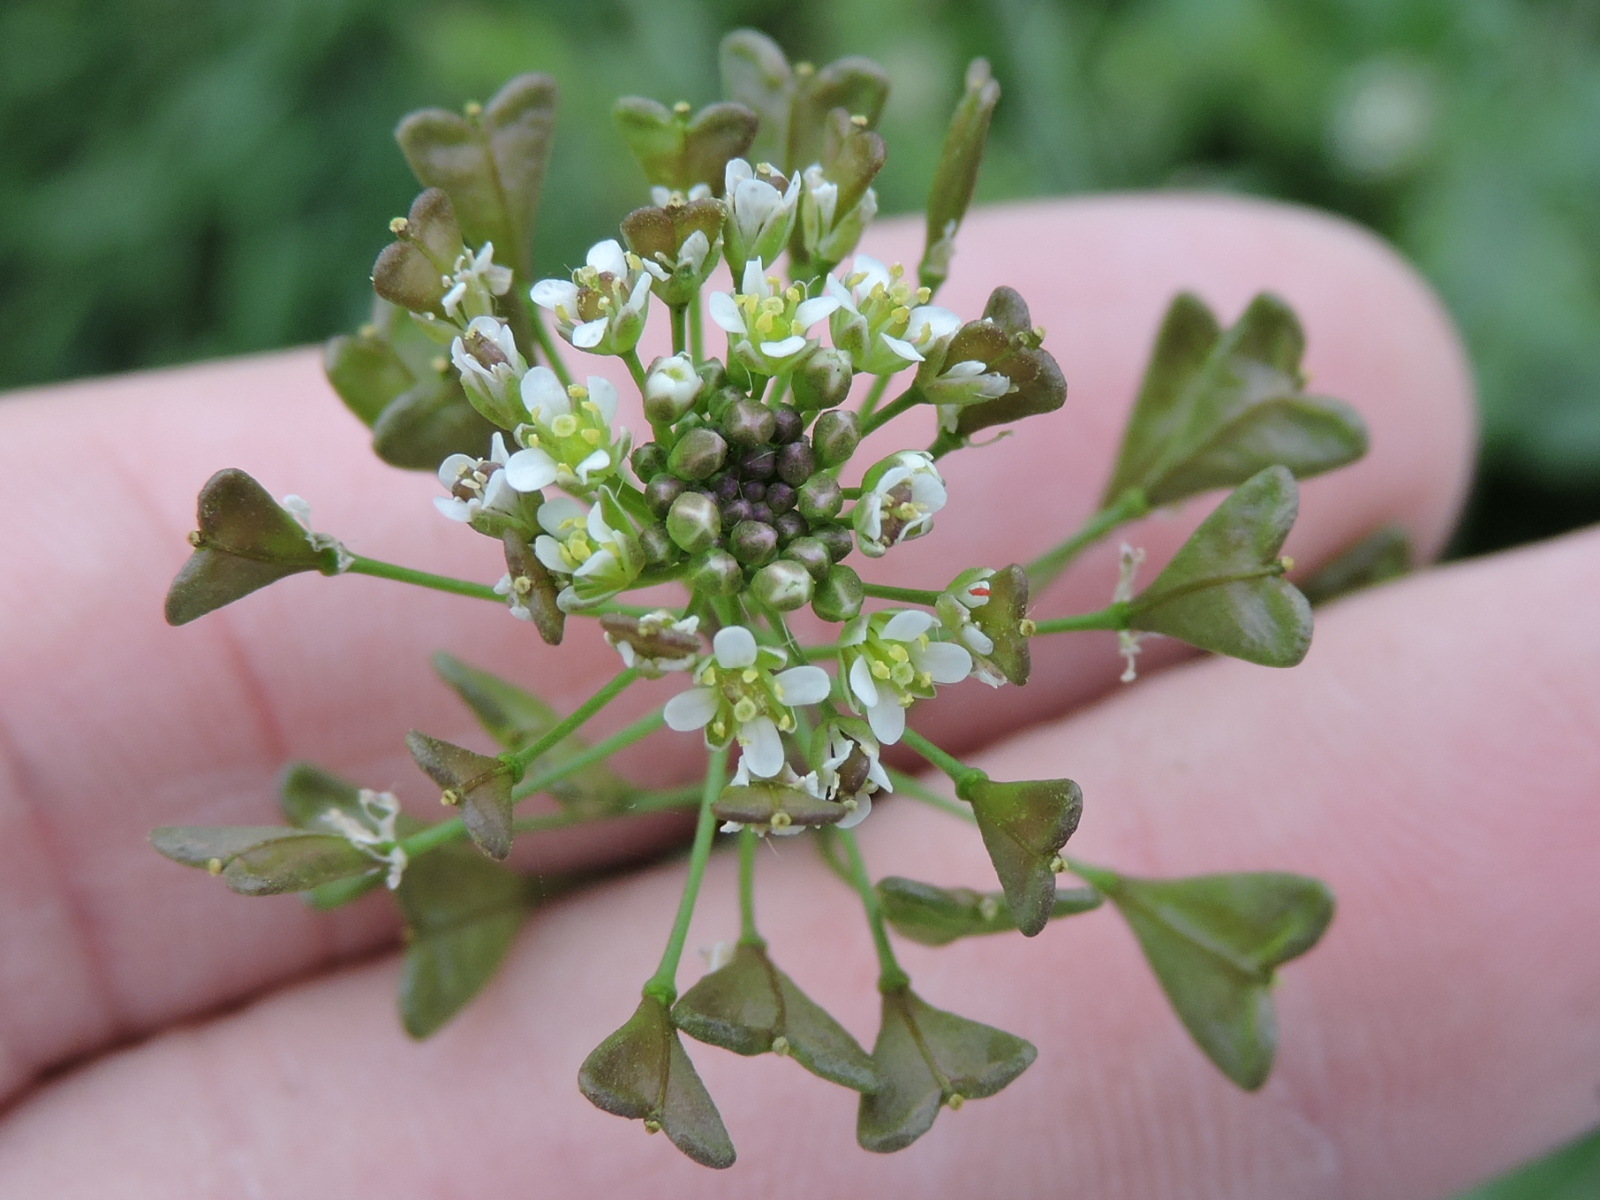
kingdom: Plantae
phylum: Tracheophyta
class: Magnoliopsida
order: Brassicales
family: Brassicaceae
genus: Capsella
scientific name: Capsella bursa-pastoris
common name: Shepherd's purse
